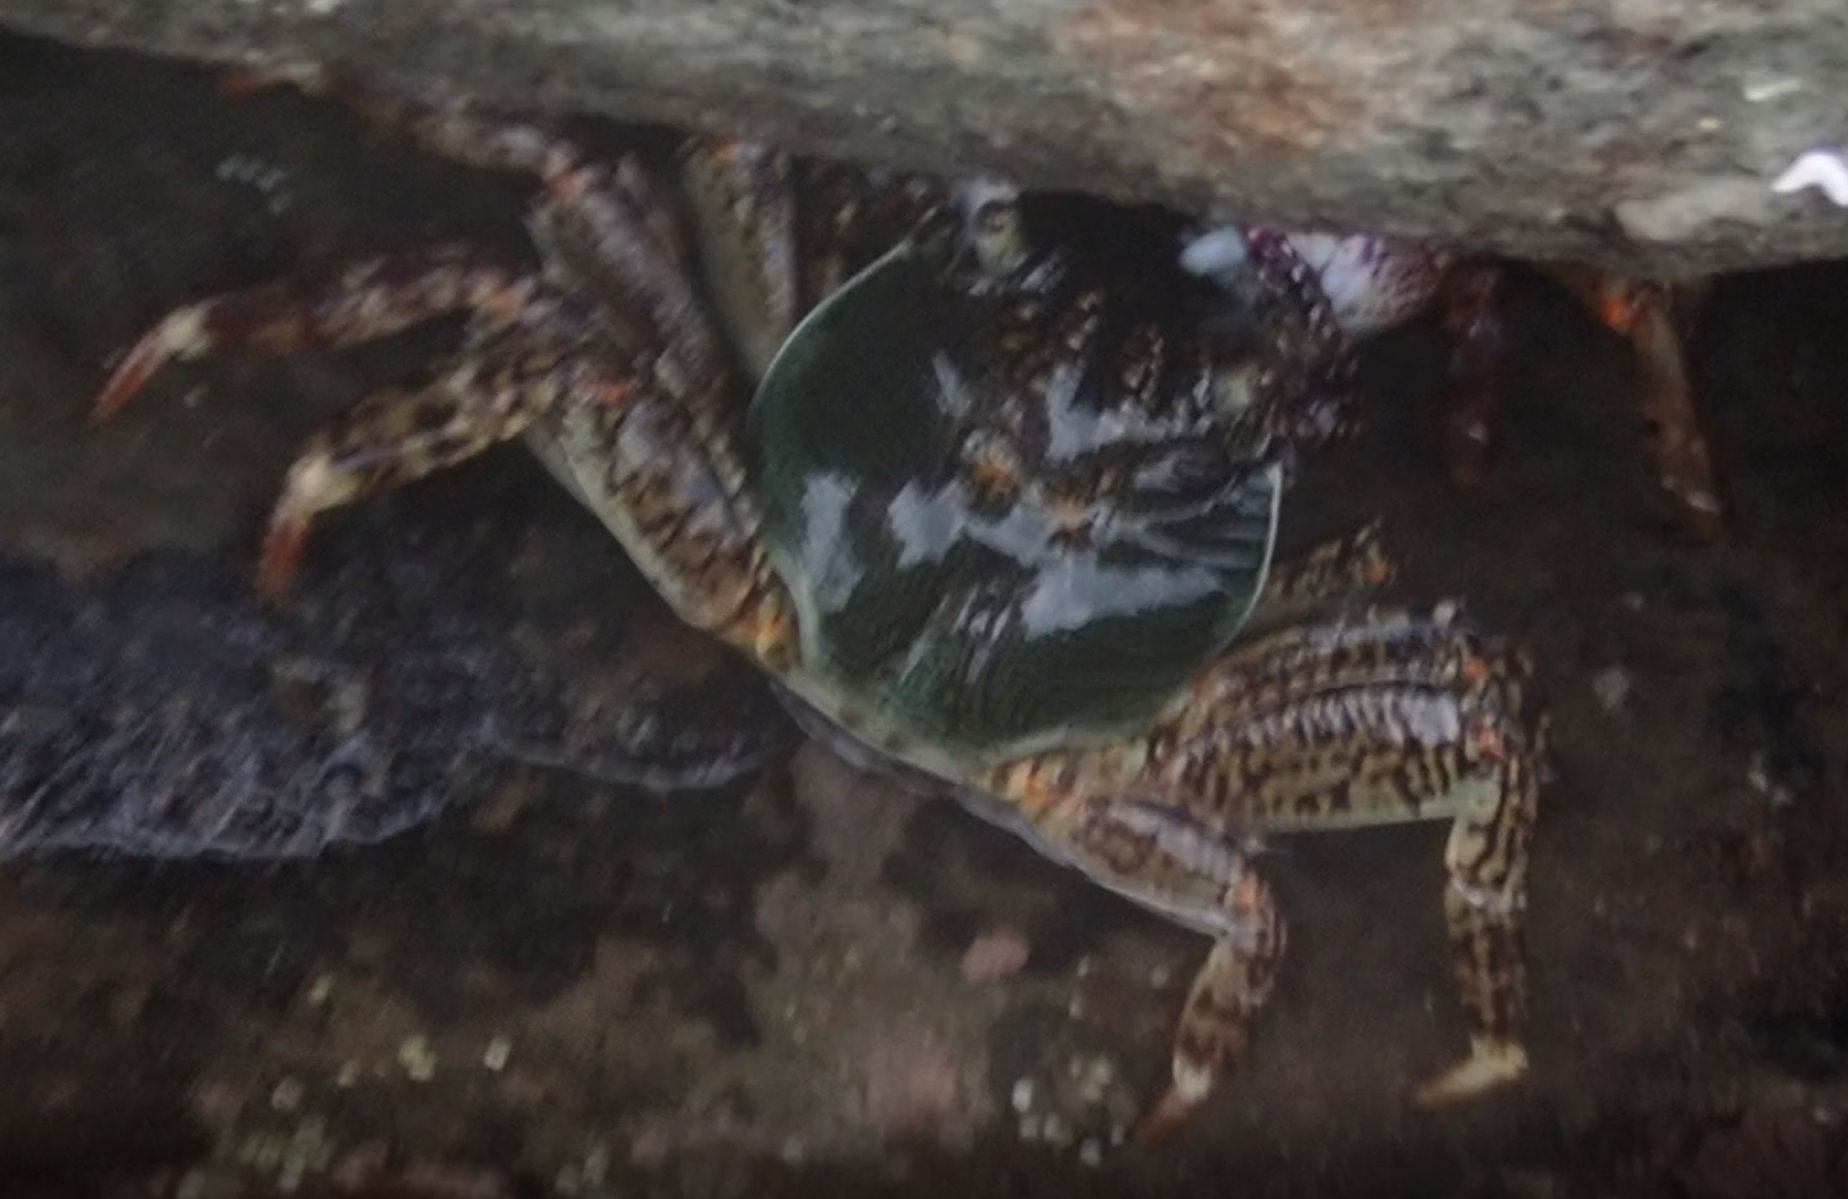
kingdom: Animalia
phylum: Arthropoda
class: Malacostraca
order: Decapoda
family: Grapsidae
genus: Grapsus
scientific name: Grapsus albolineatus
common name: Mottled lightfoot crab
